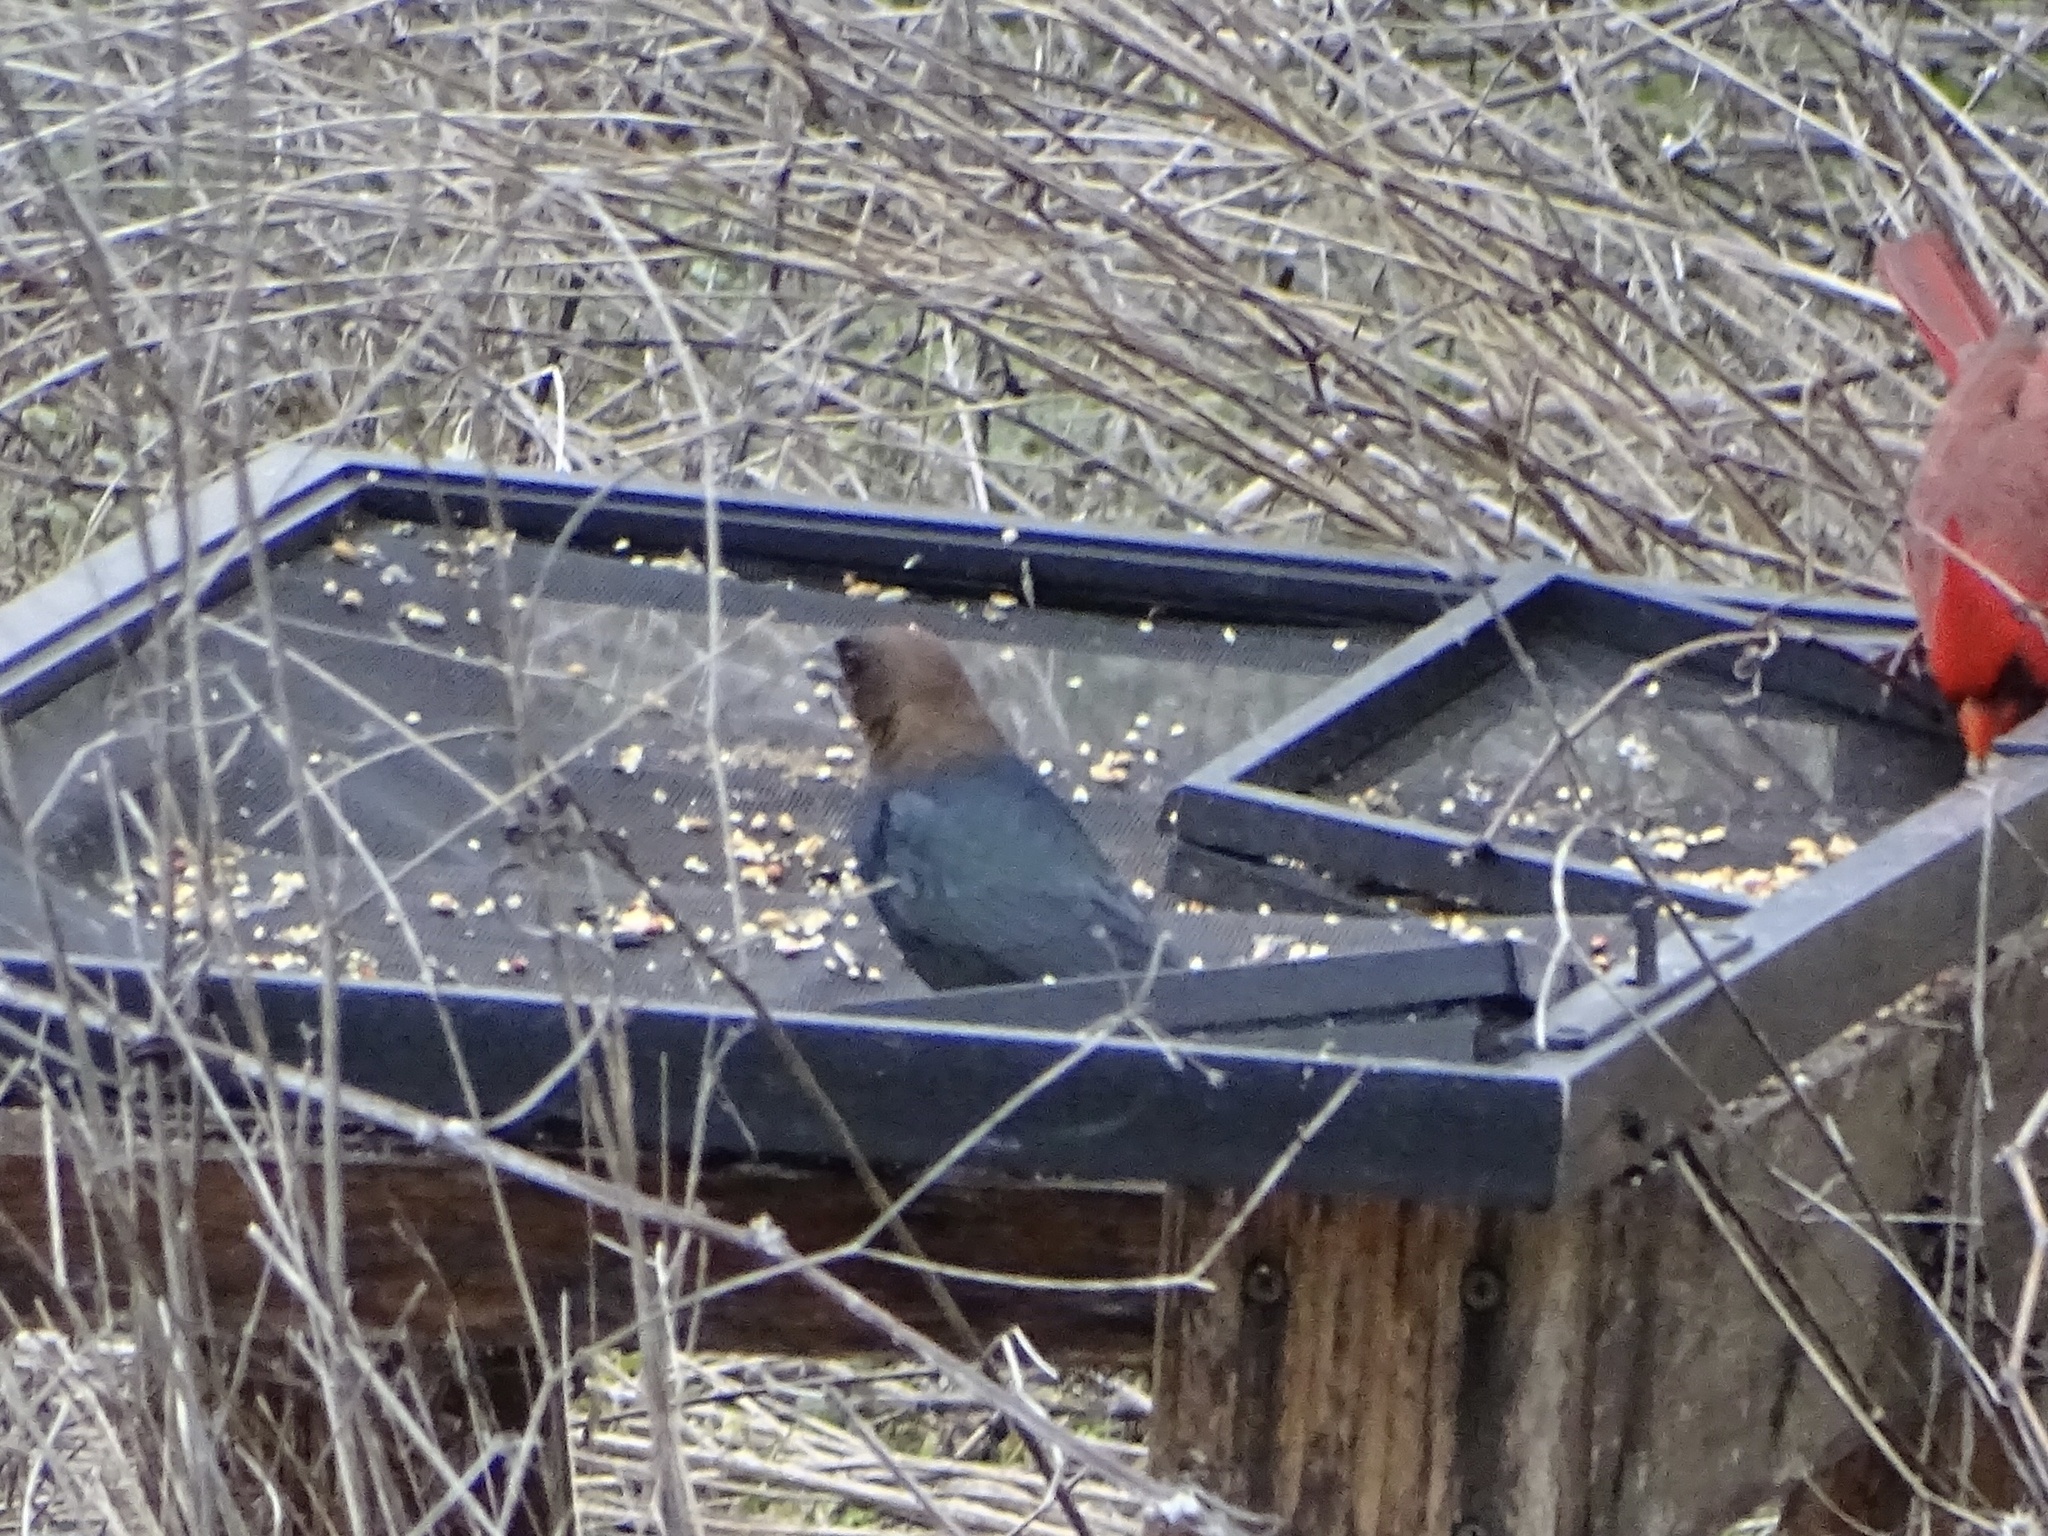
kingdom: Animalia
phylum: Chordata
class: Aves
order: Passeriformes
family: Icteridae
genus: Molothrus
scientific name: Molothrus ater
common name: Brown-headed cowbird
